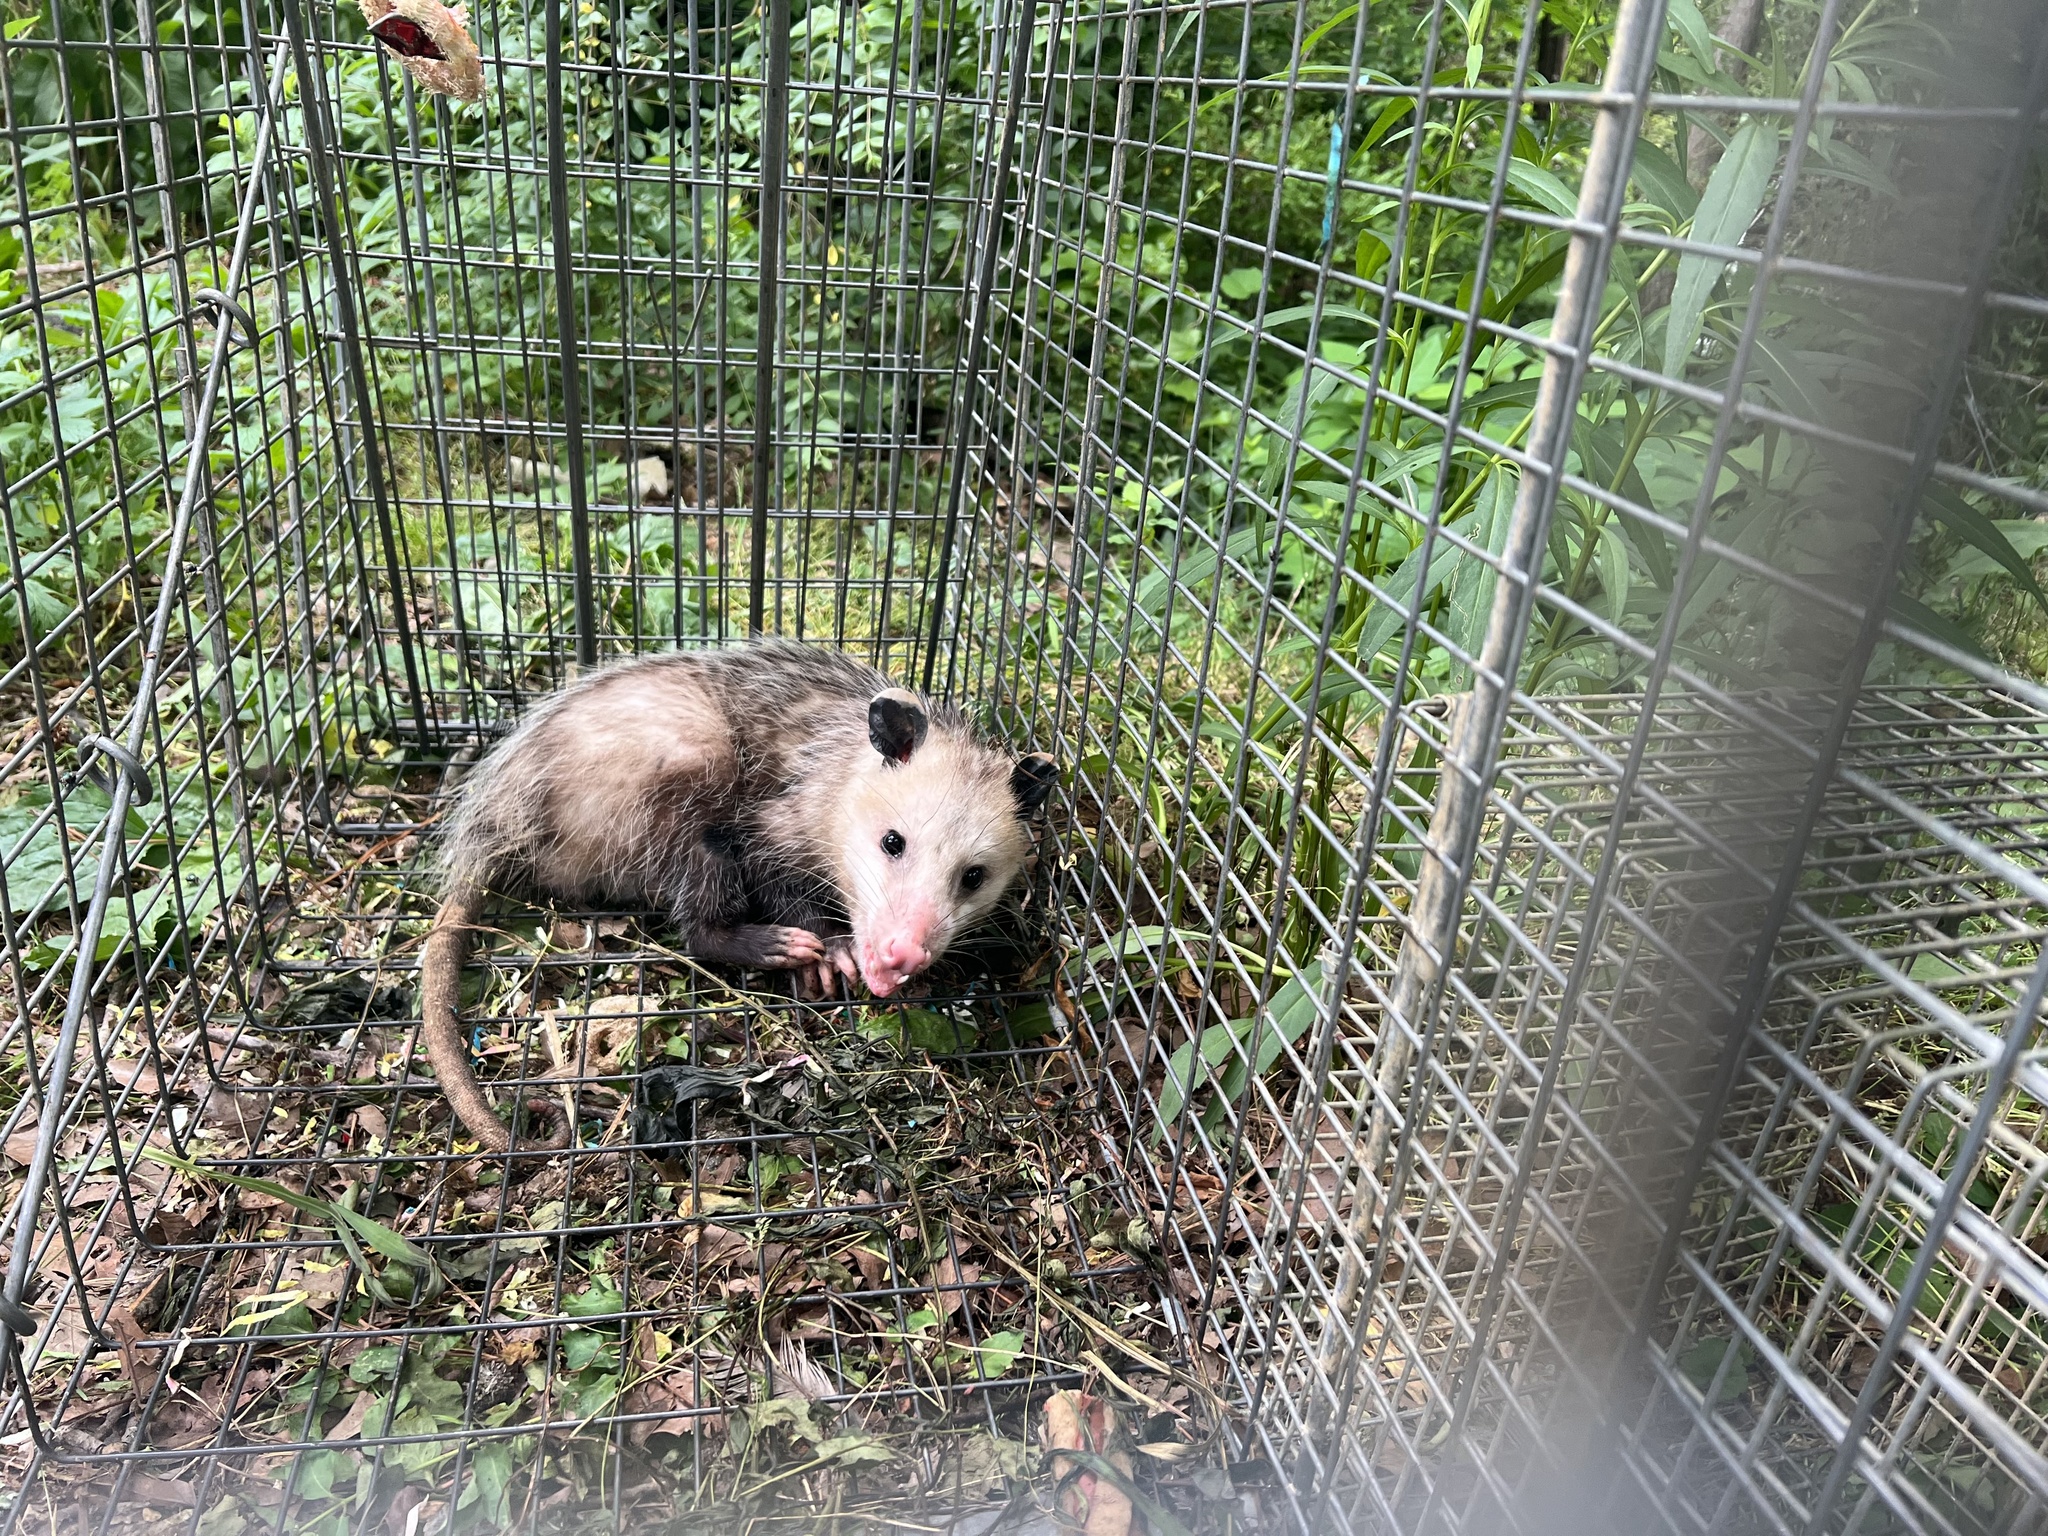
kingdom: Animalia
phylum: Chordata
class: Mammalia
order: Didelphimorphia
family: Didelphidae
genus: Didelphis
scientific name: Didelphis virginiana
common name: Virginia opossum
